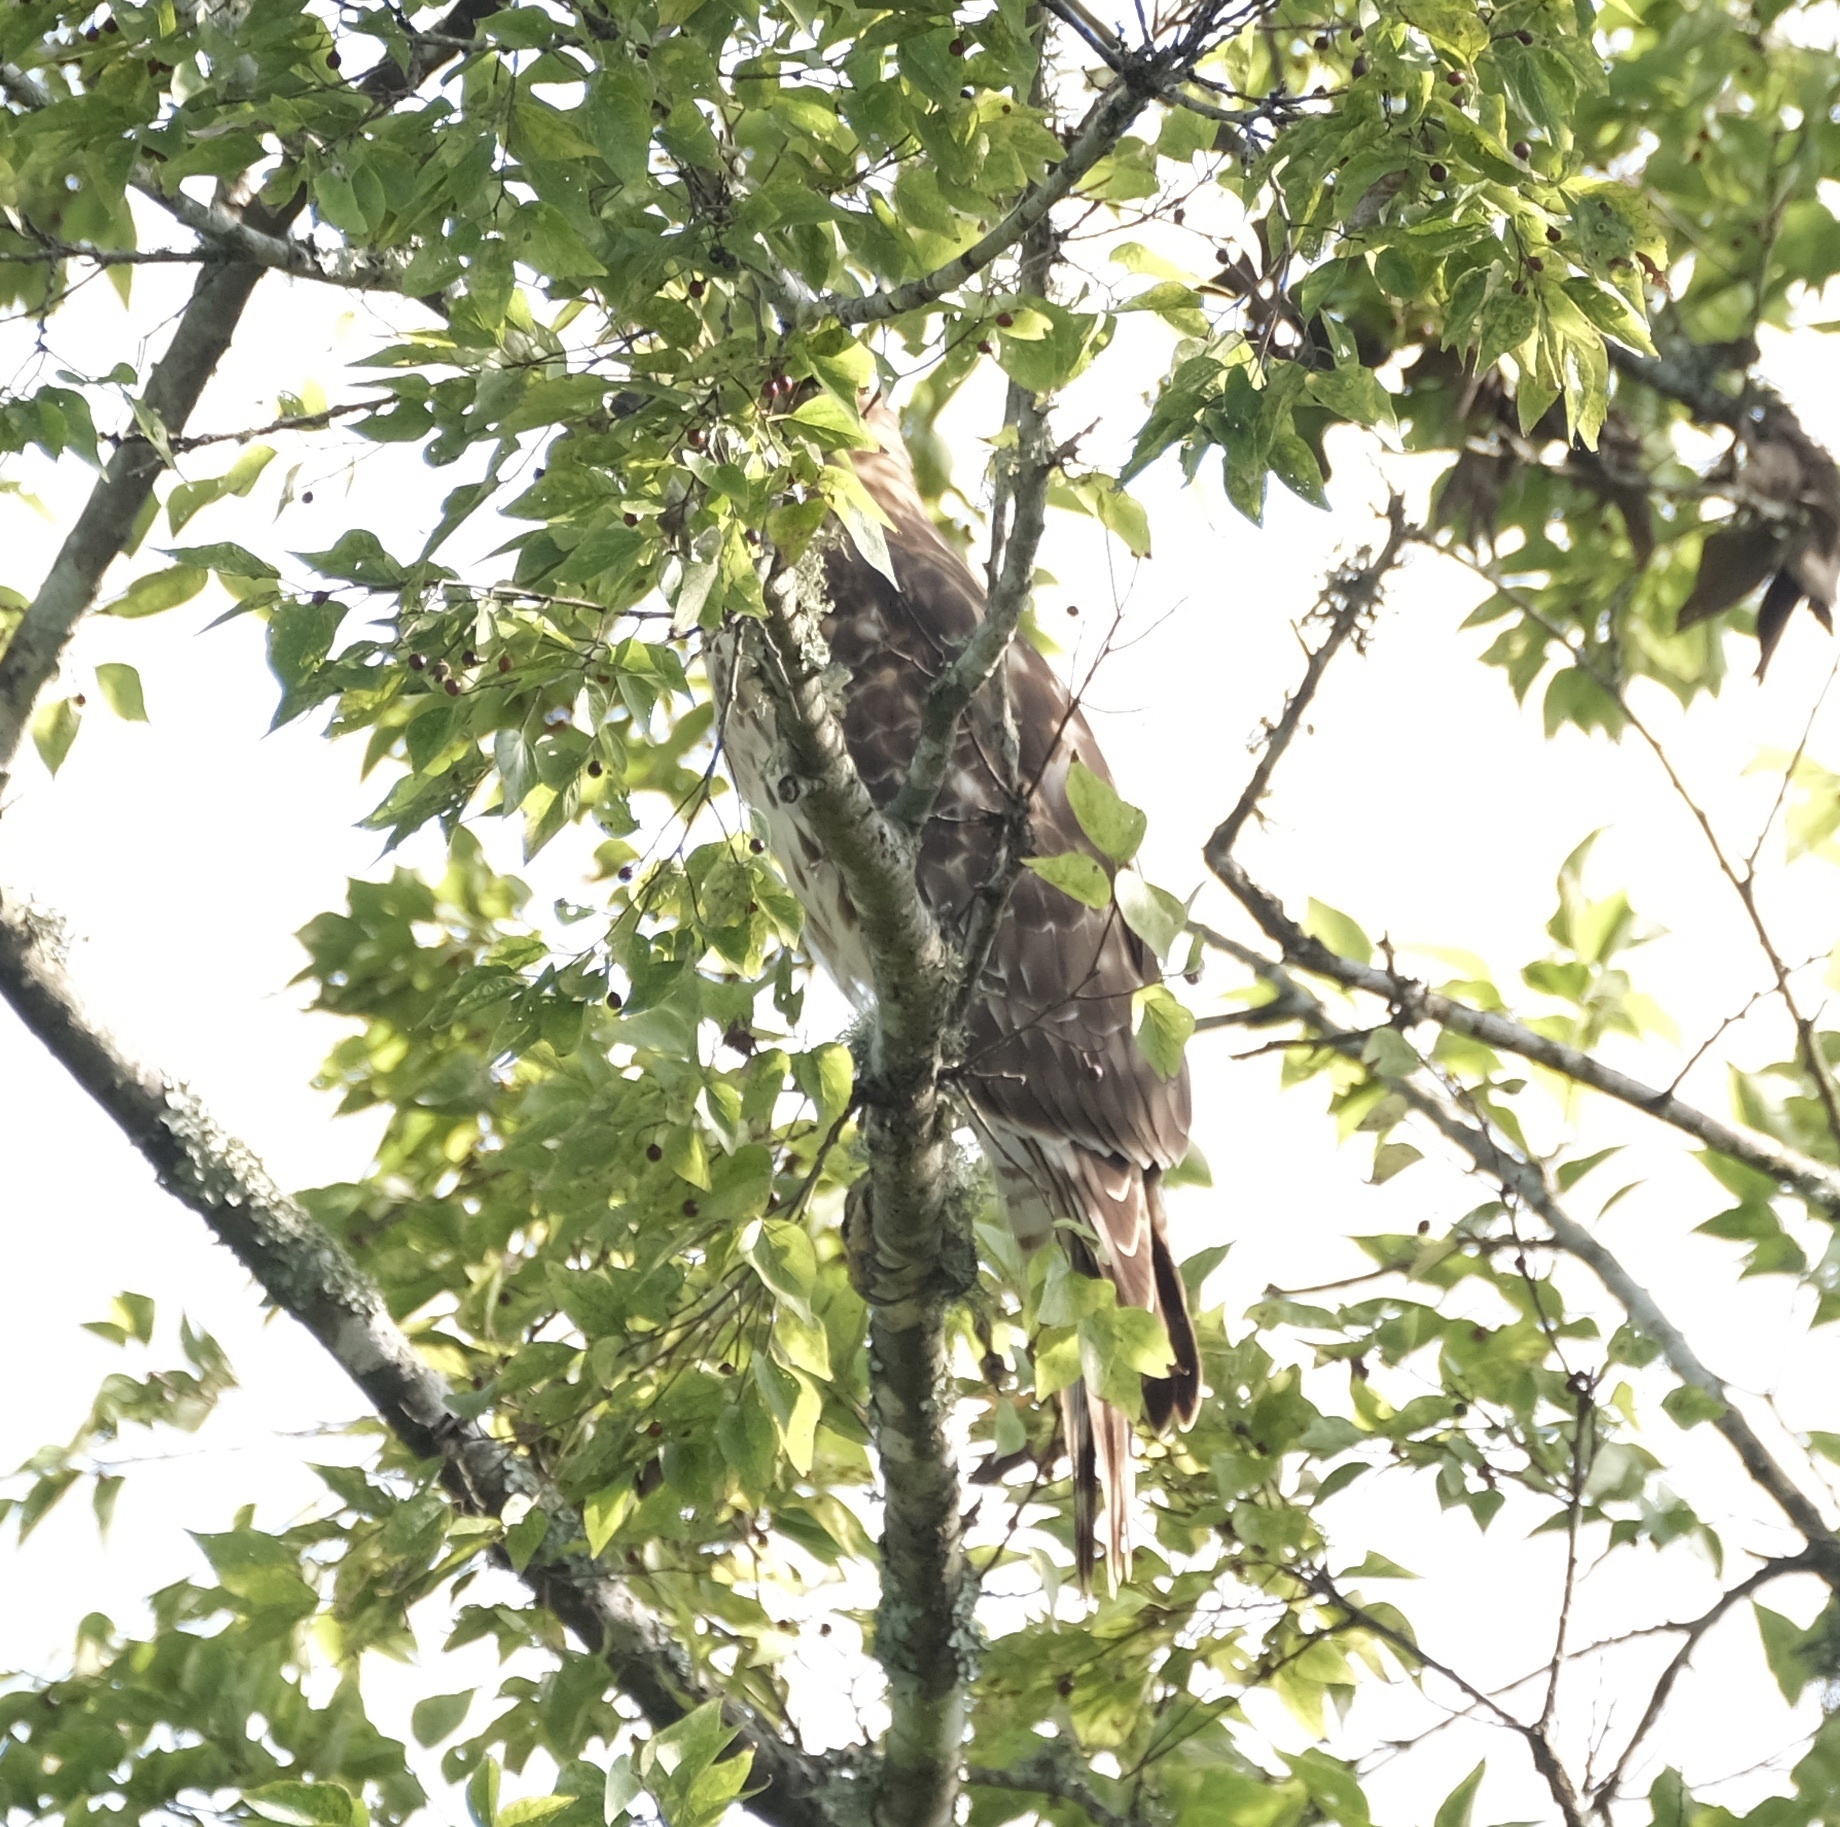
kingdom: Animalia
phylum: Chordata
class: Aves
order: Accipitriformes
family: Accipitridae
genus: Buteo
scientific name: Buteo lineatus
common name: Red-shouldered hawk
